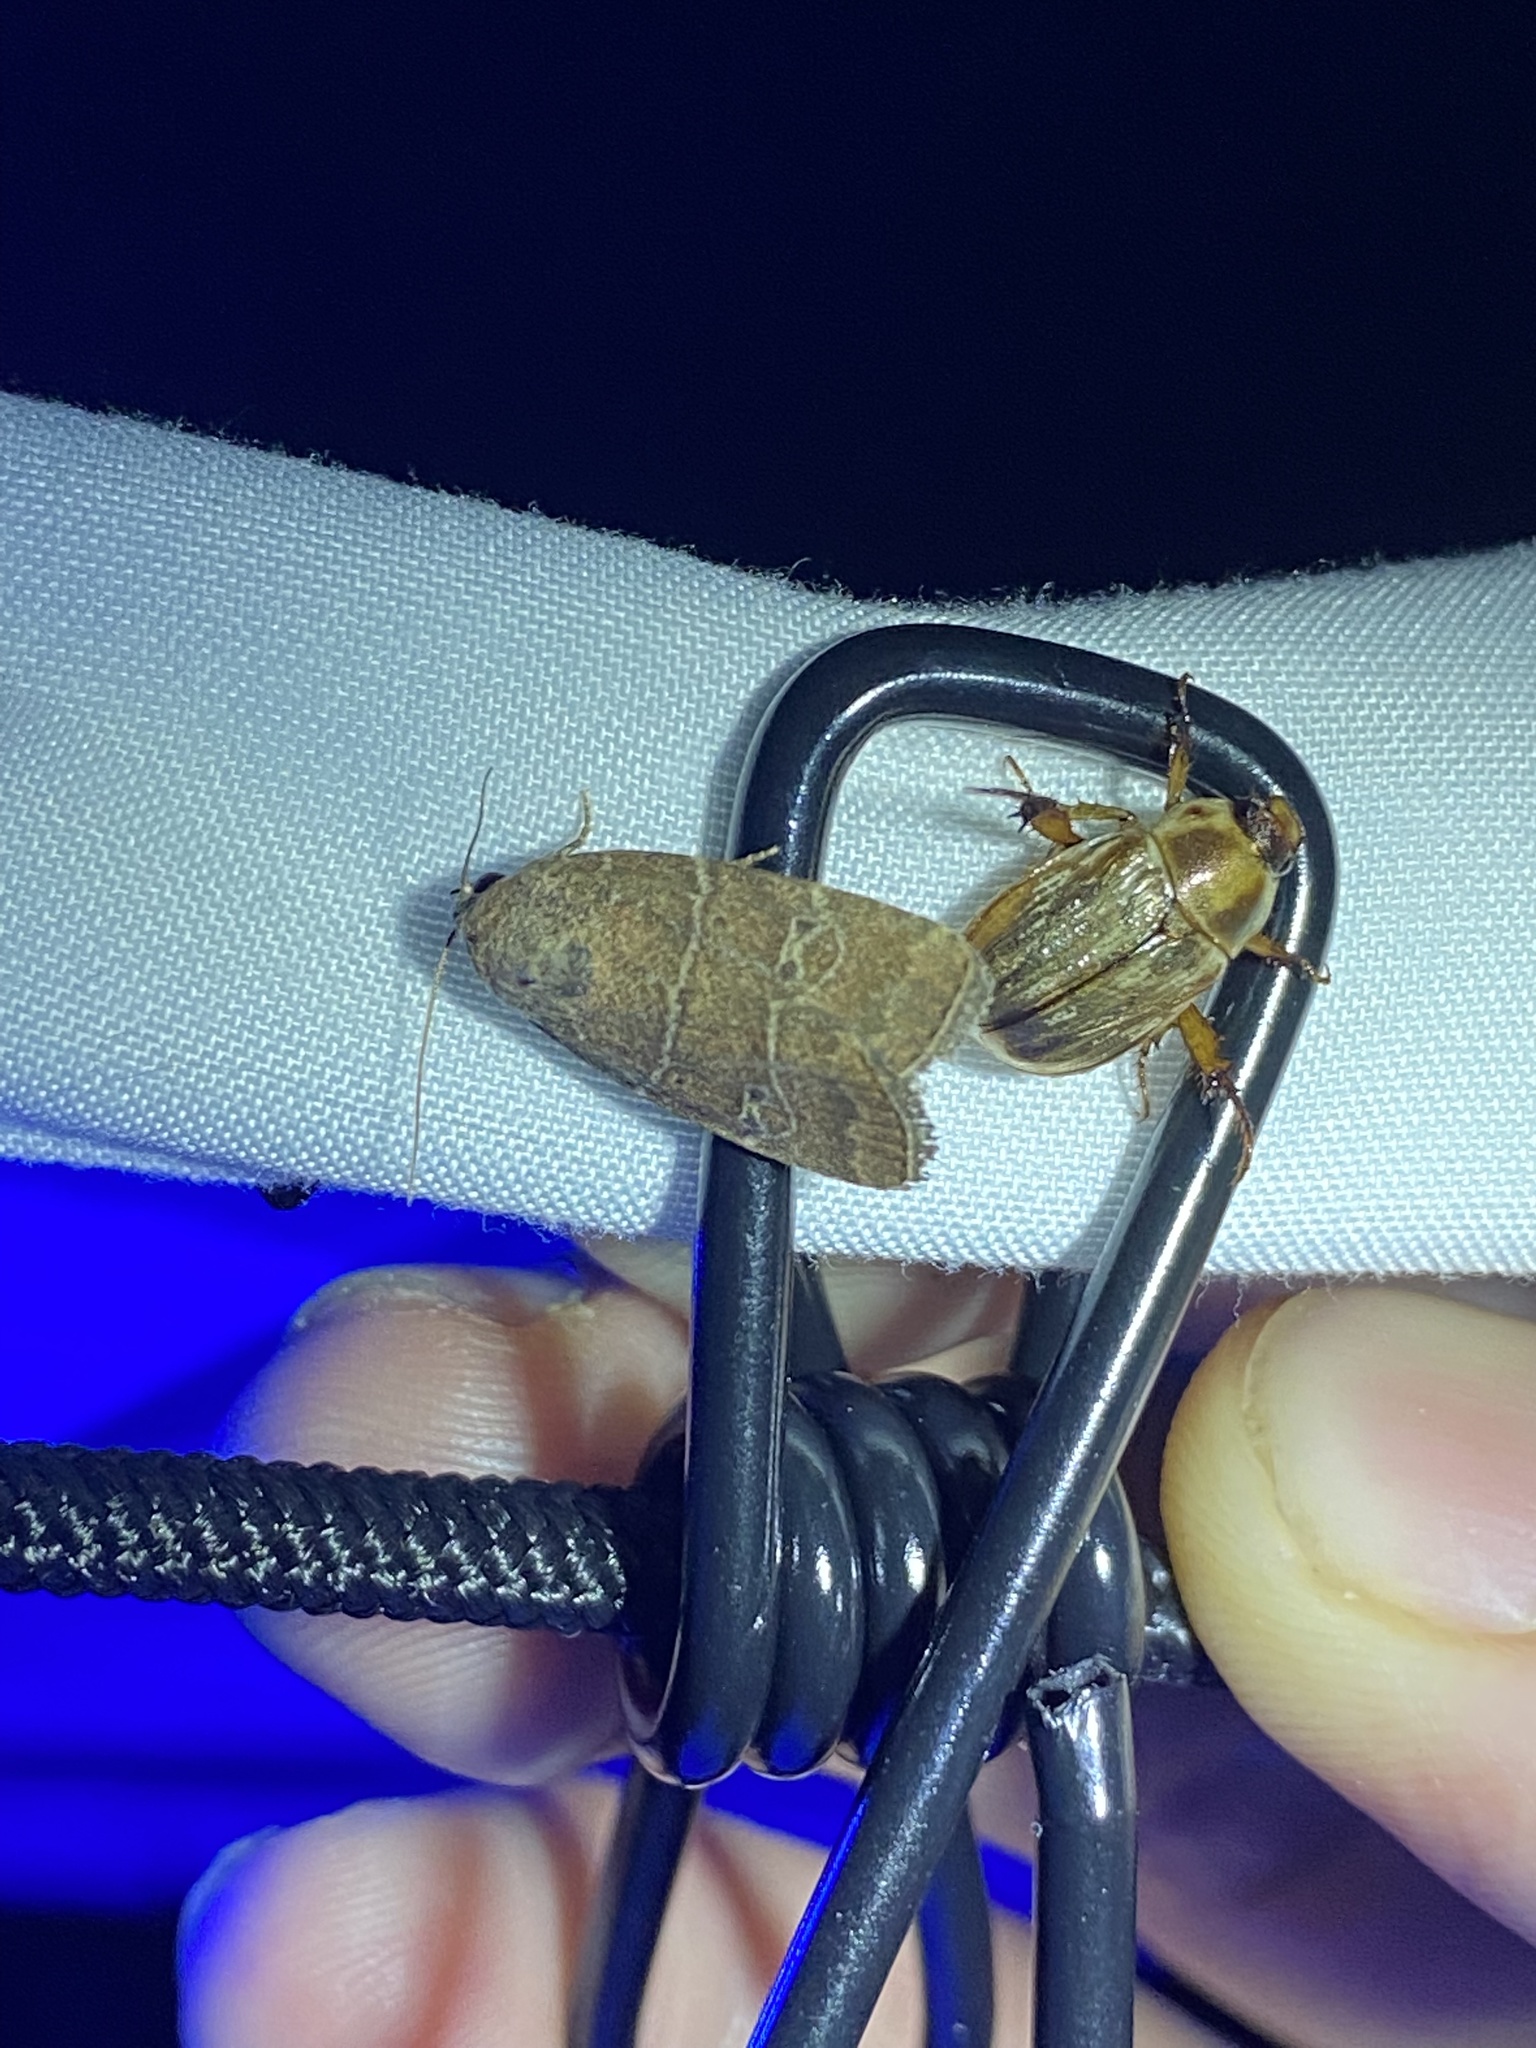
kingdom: Animalia
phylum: Arthropoda
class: Insecta
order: Lepidoptera
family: Noctuidae
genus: Elaphria
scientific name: Elaphria grata
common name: Grateful midget moth
